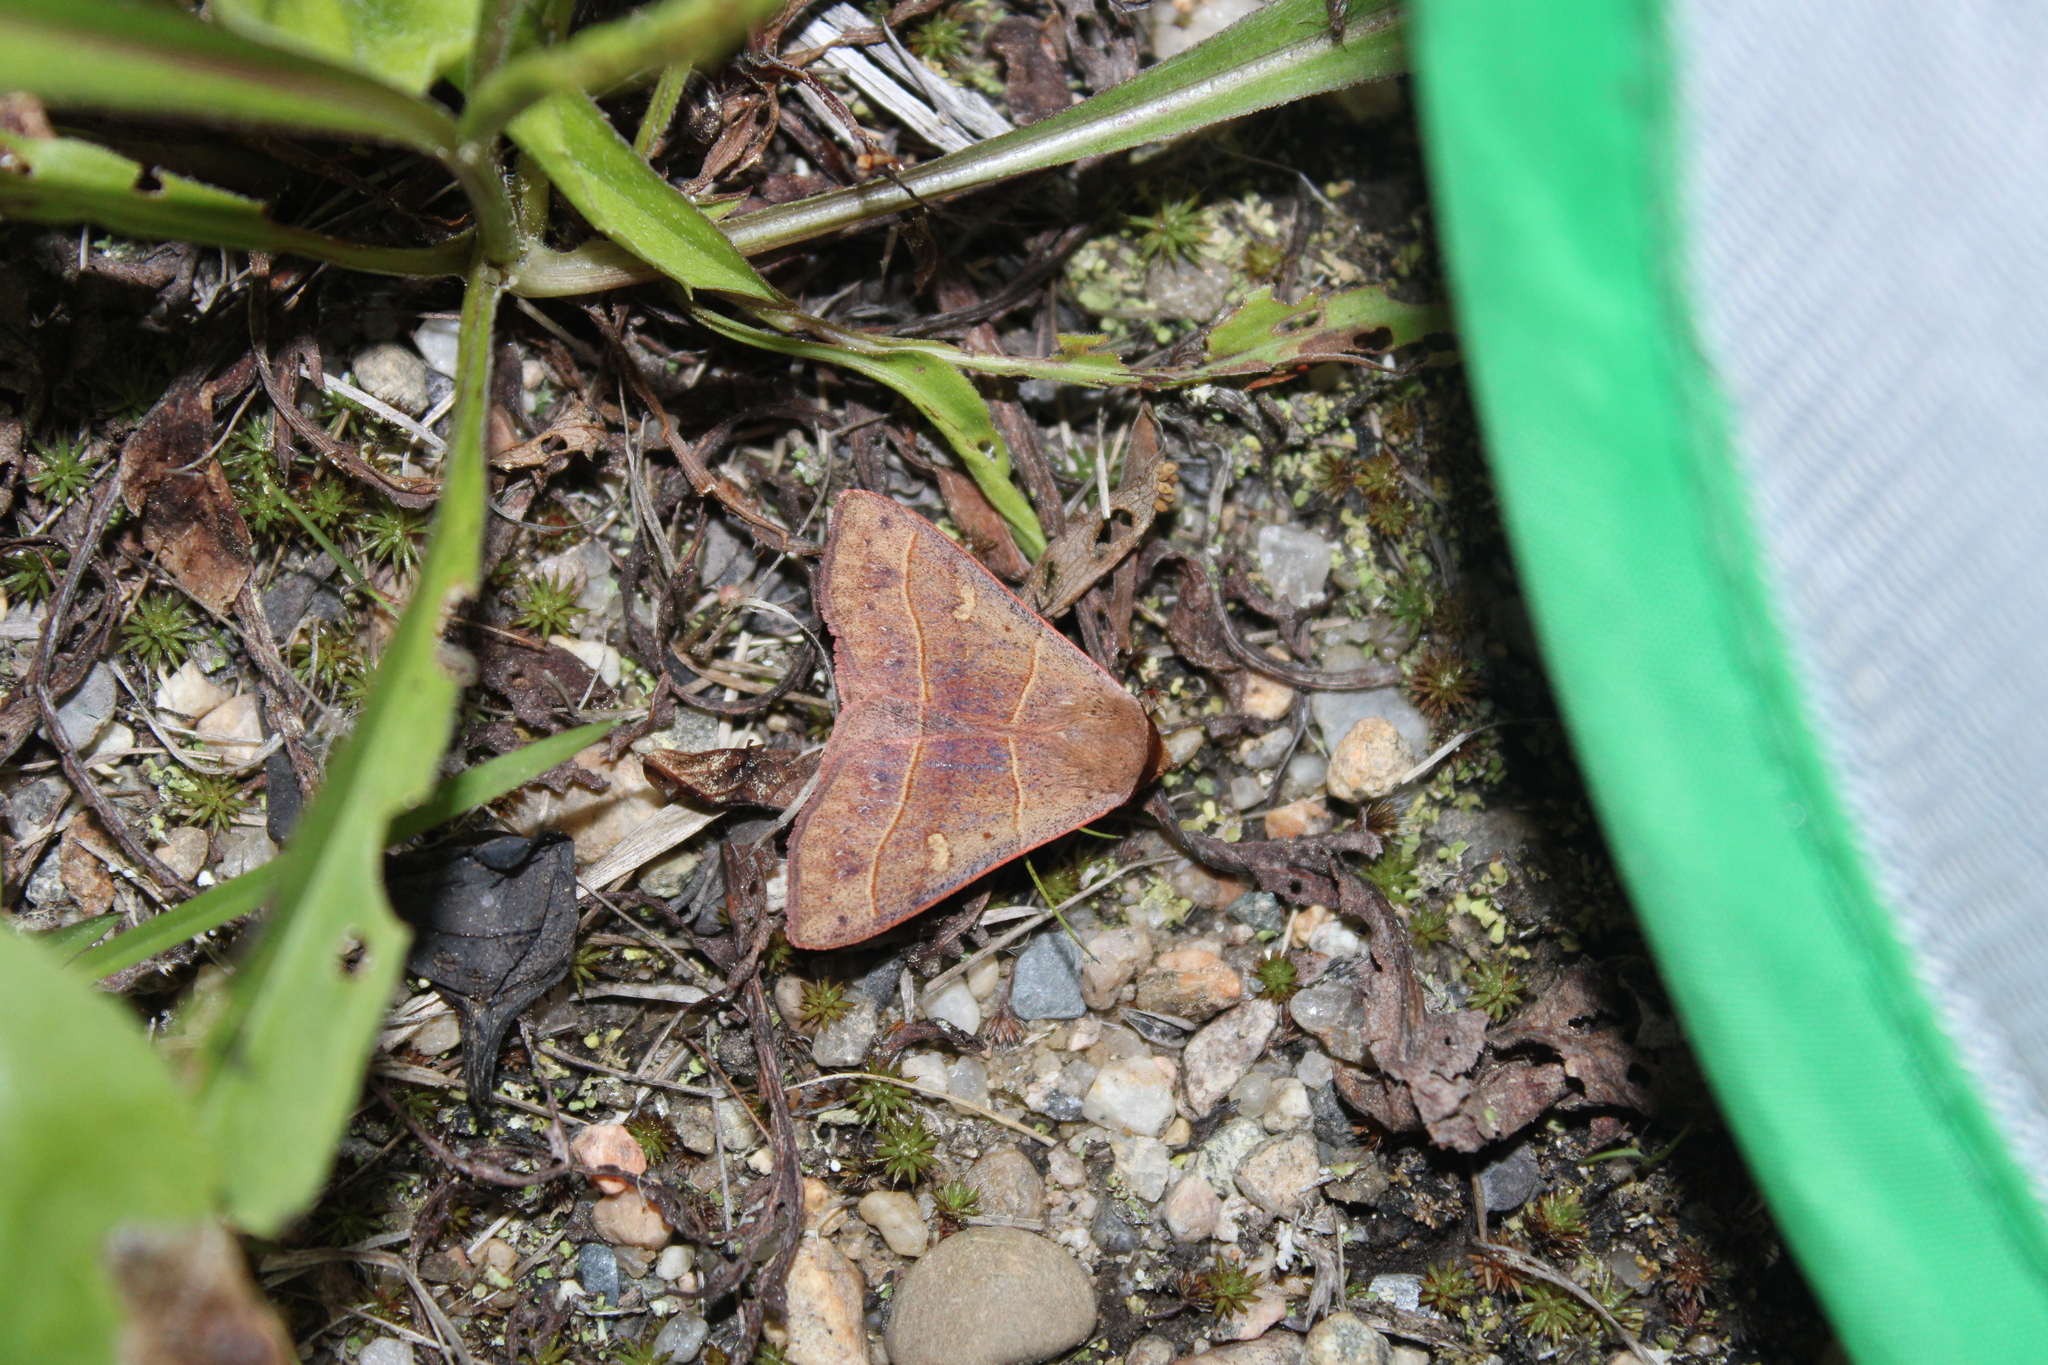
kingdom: Animalia
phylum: Arthropoda
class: Insecta
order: Lepidoptera
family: Erebidae
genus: Panopoda
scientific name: Panopoda rufimargo
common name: Red-lined panopoda moth
